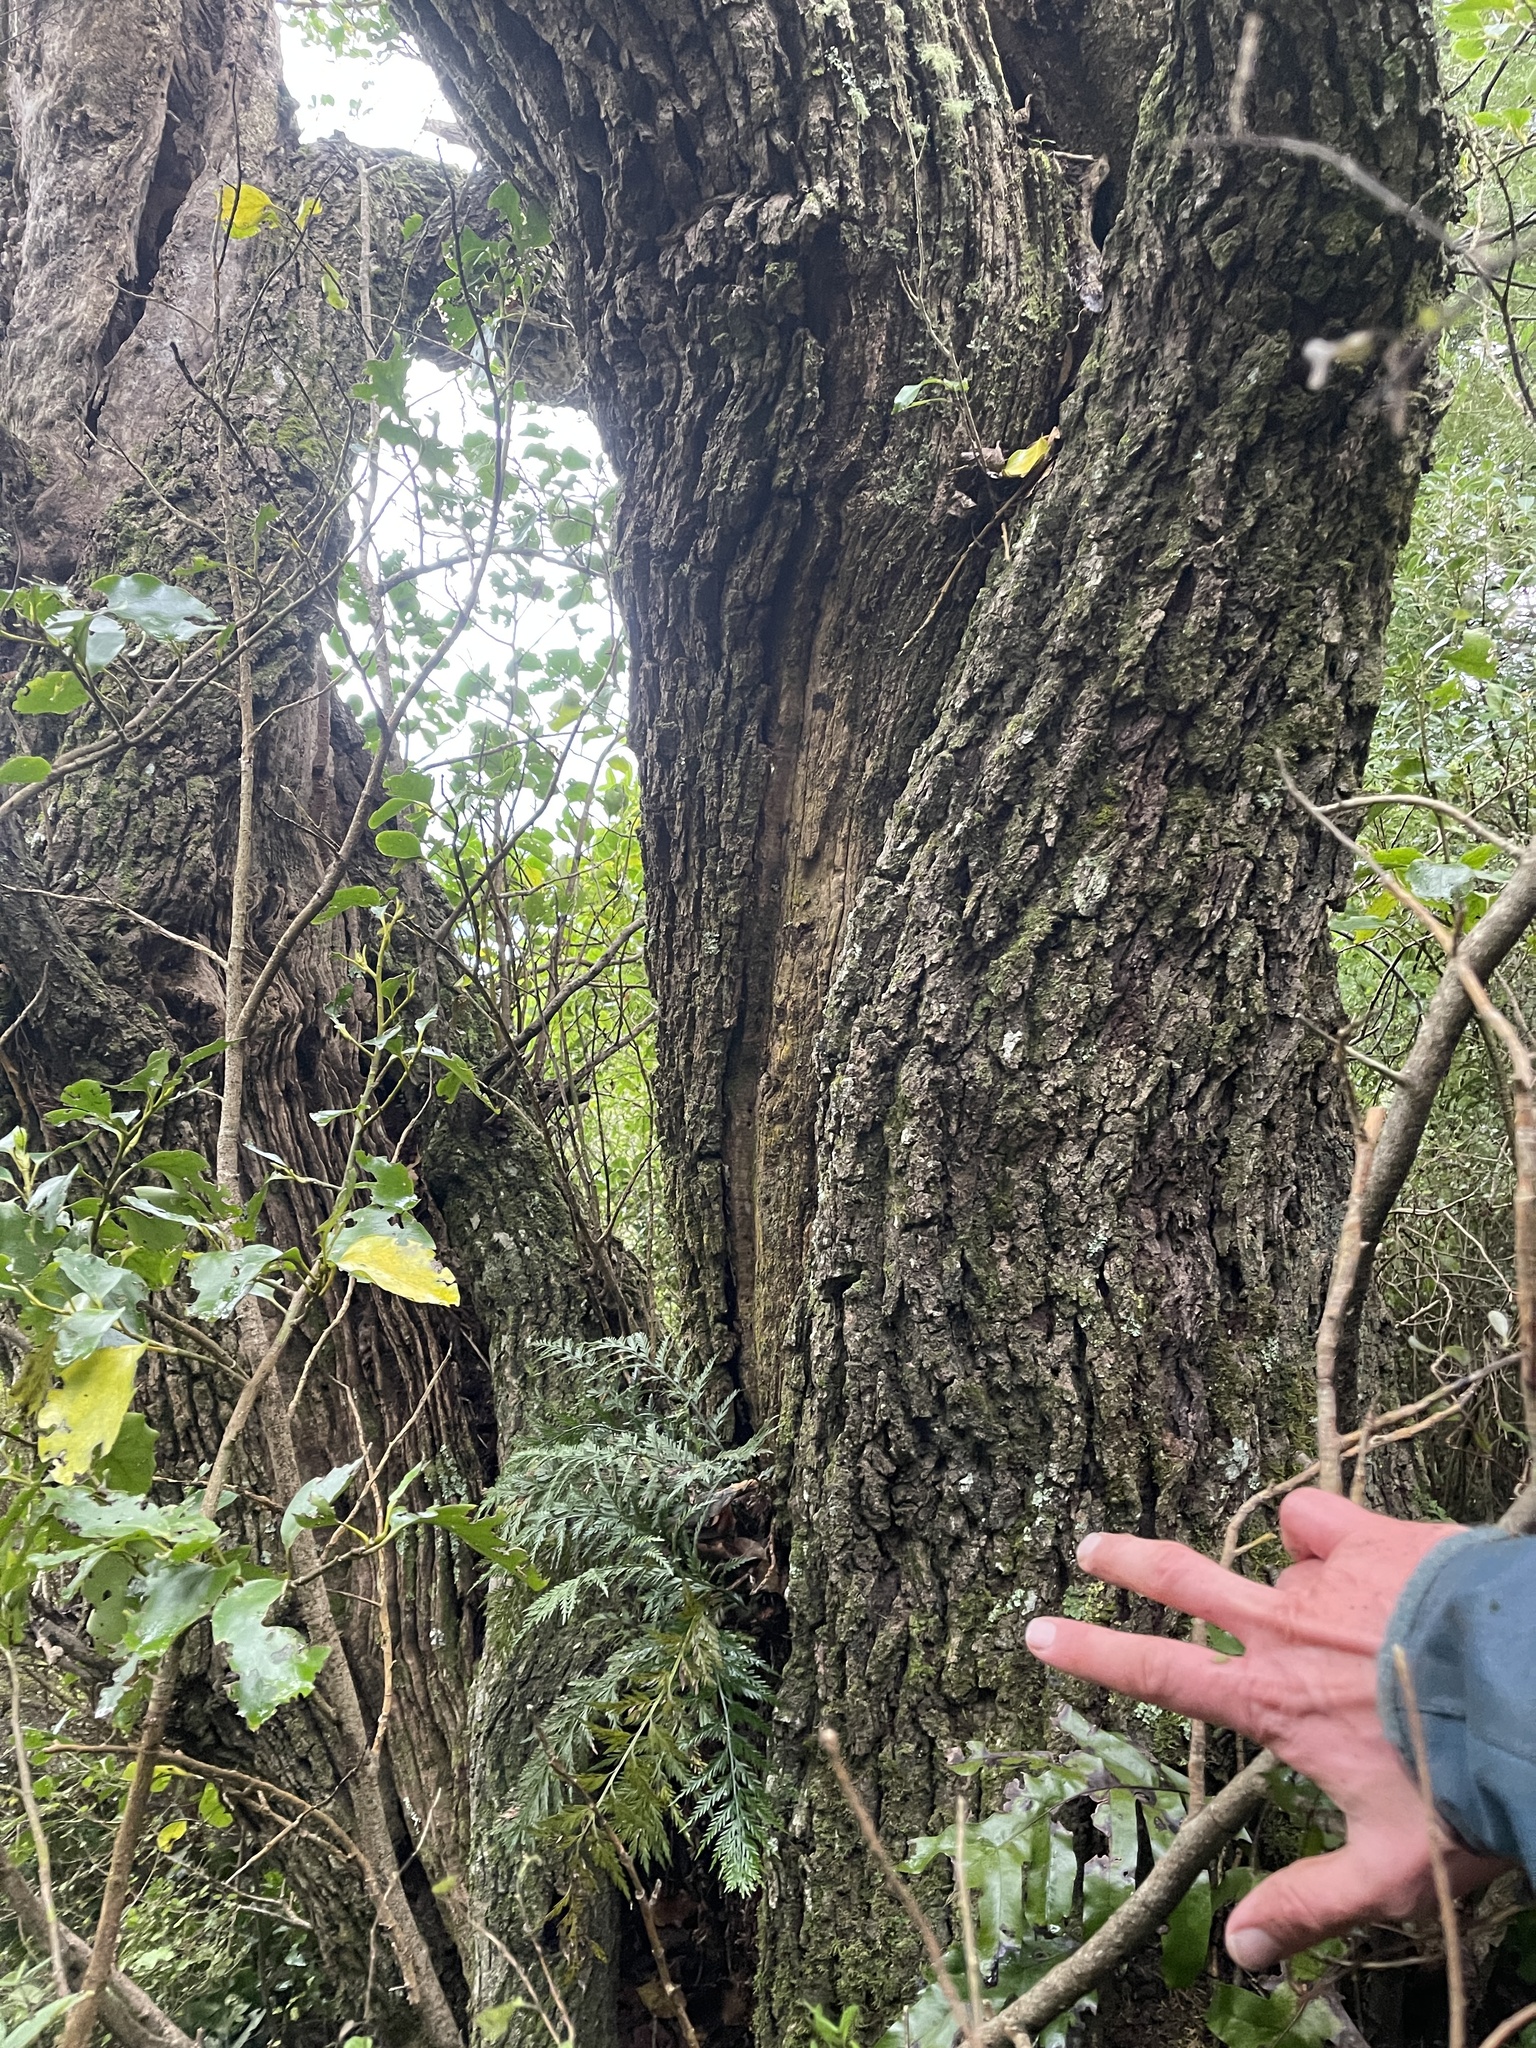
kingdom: Plantae
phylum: Tracheophyta
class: Magnoliopsida
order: Apiales
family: Griseliniaceae
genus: Griselinia
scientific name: Griselinia littoralis
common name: New zealand broadleaf
